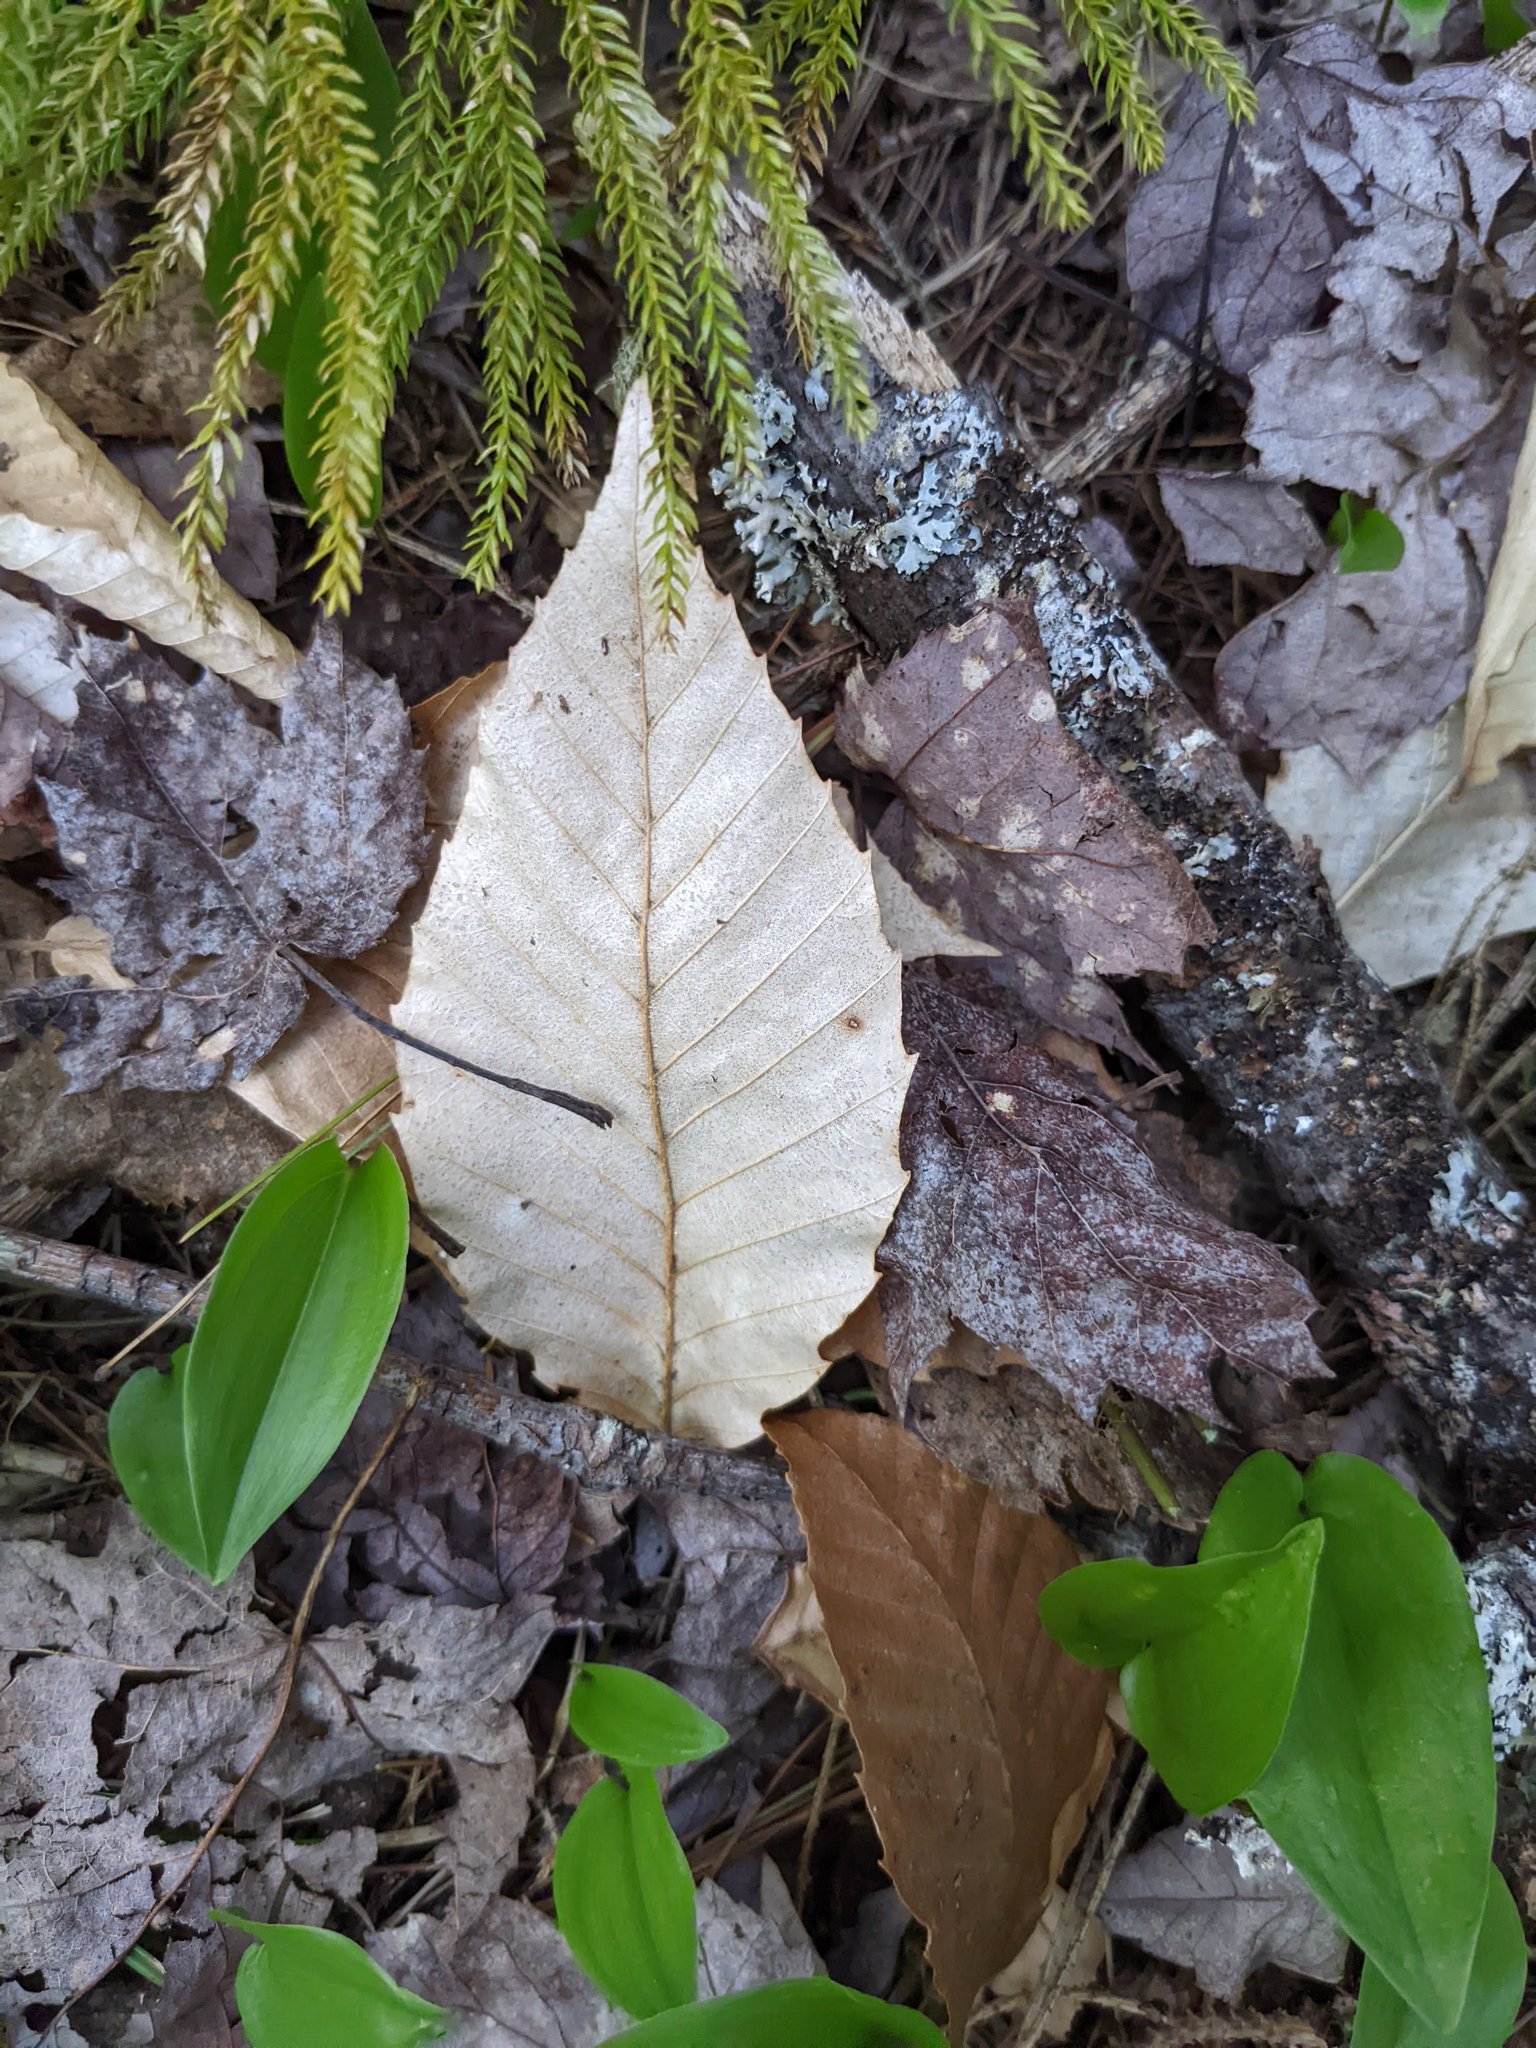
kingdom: Plantae
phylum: Tracheophyta
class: Magnoliopsida
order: Fagales
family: Fagaceae
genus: Fagus
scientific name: Fagus grandifolia
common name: American beech
